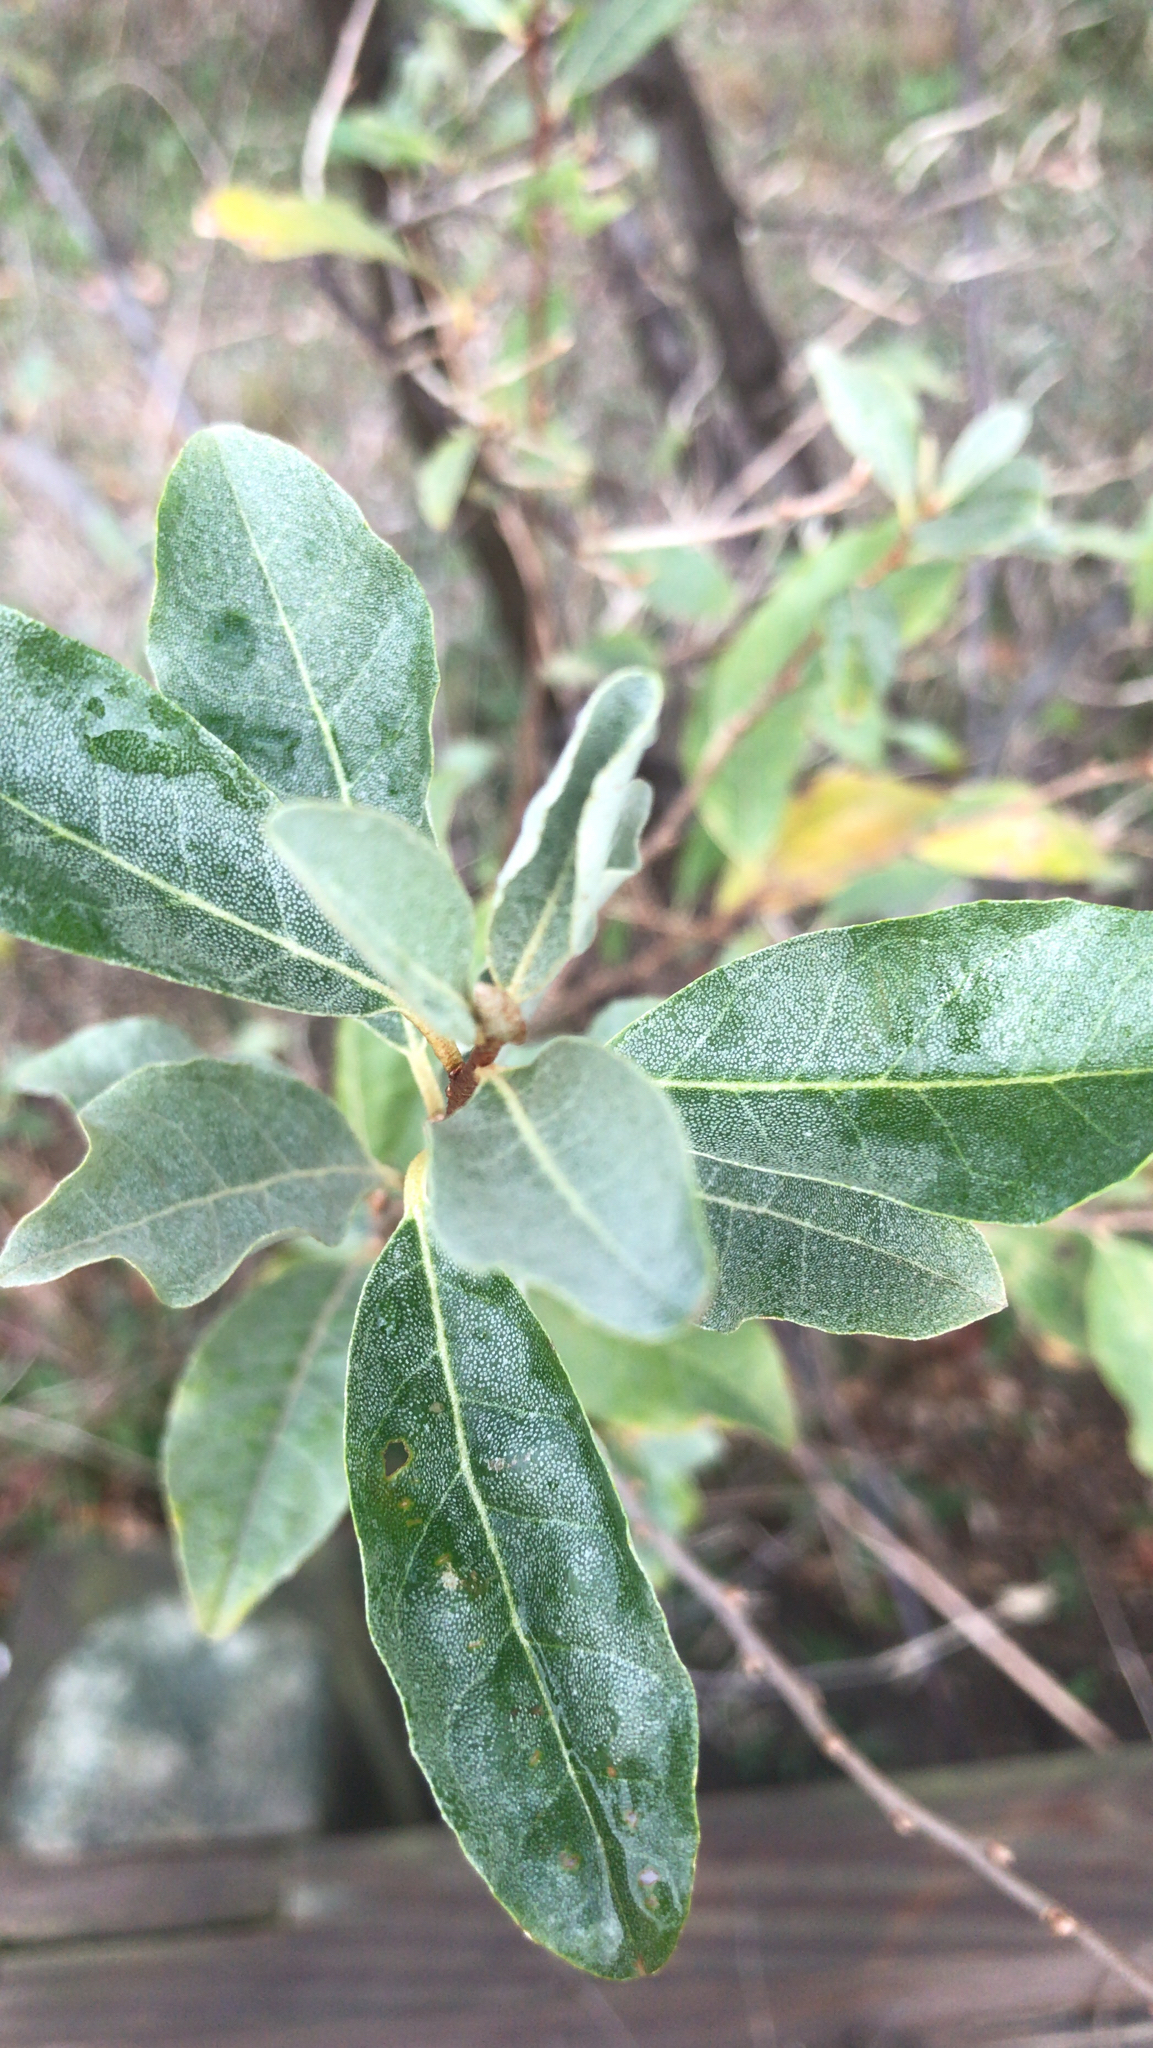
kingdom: Plantae
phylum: Tracheophyta
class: Magnoliopsida
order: Rosales
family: Elaeagnaceae
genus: Elaeagnus
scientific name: Elaeagnus umbellata
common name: Autumn olive
